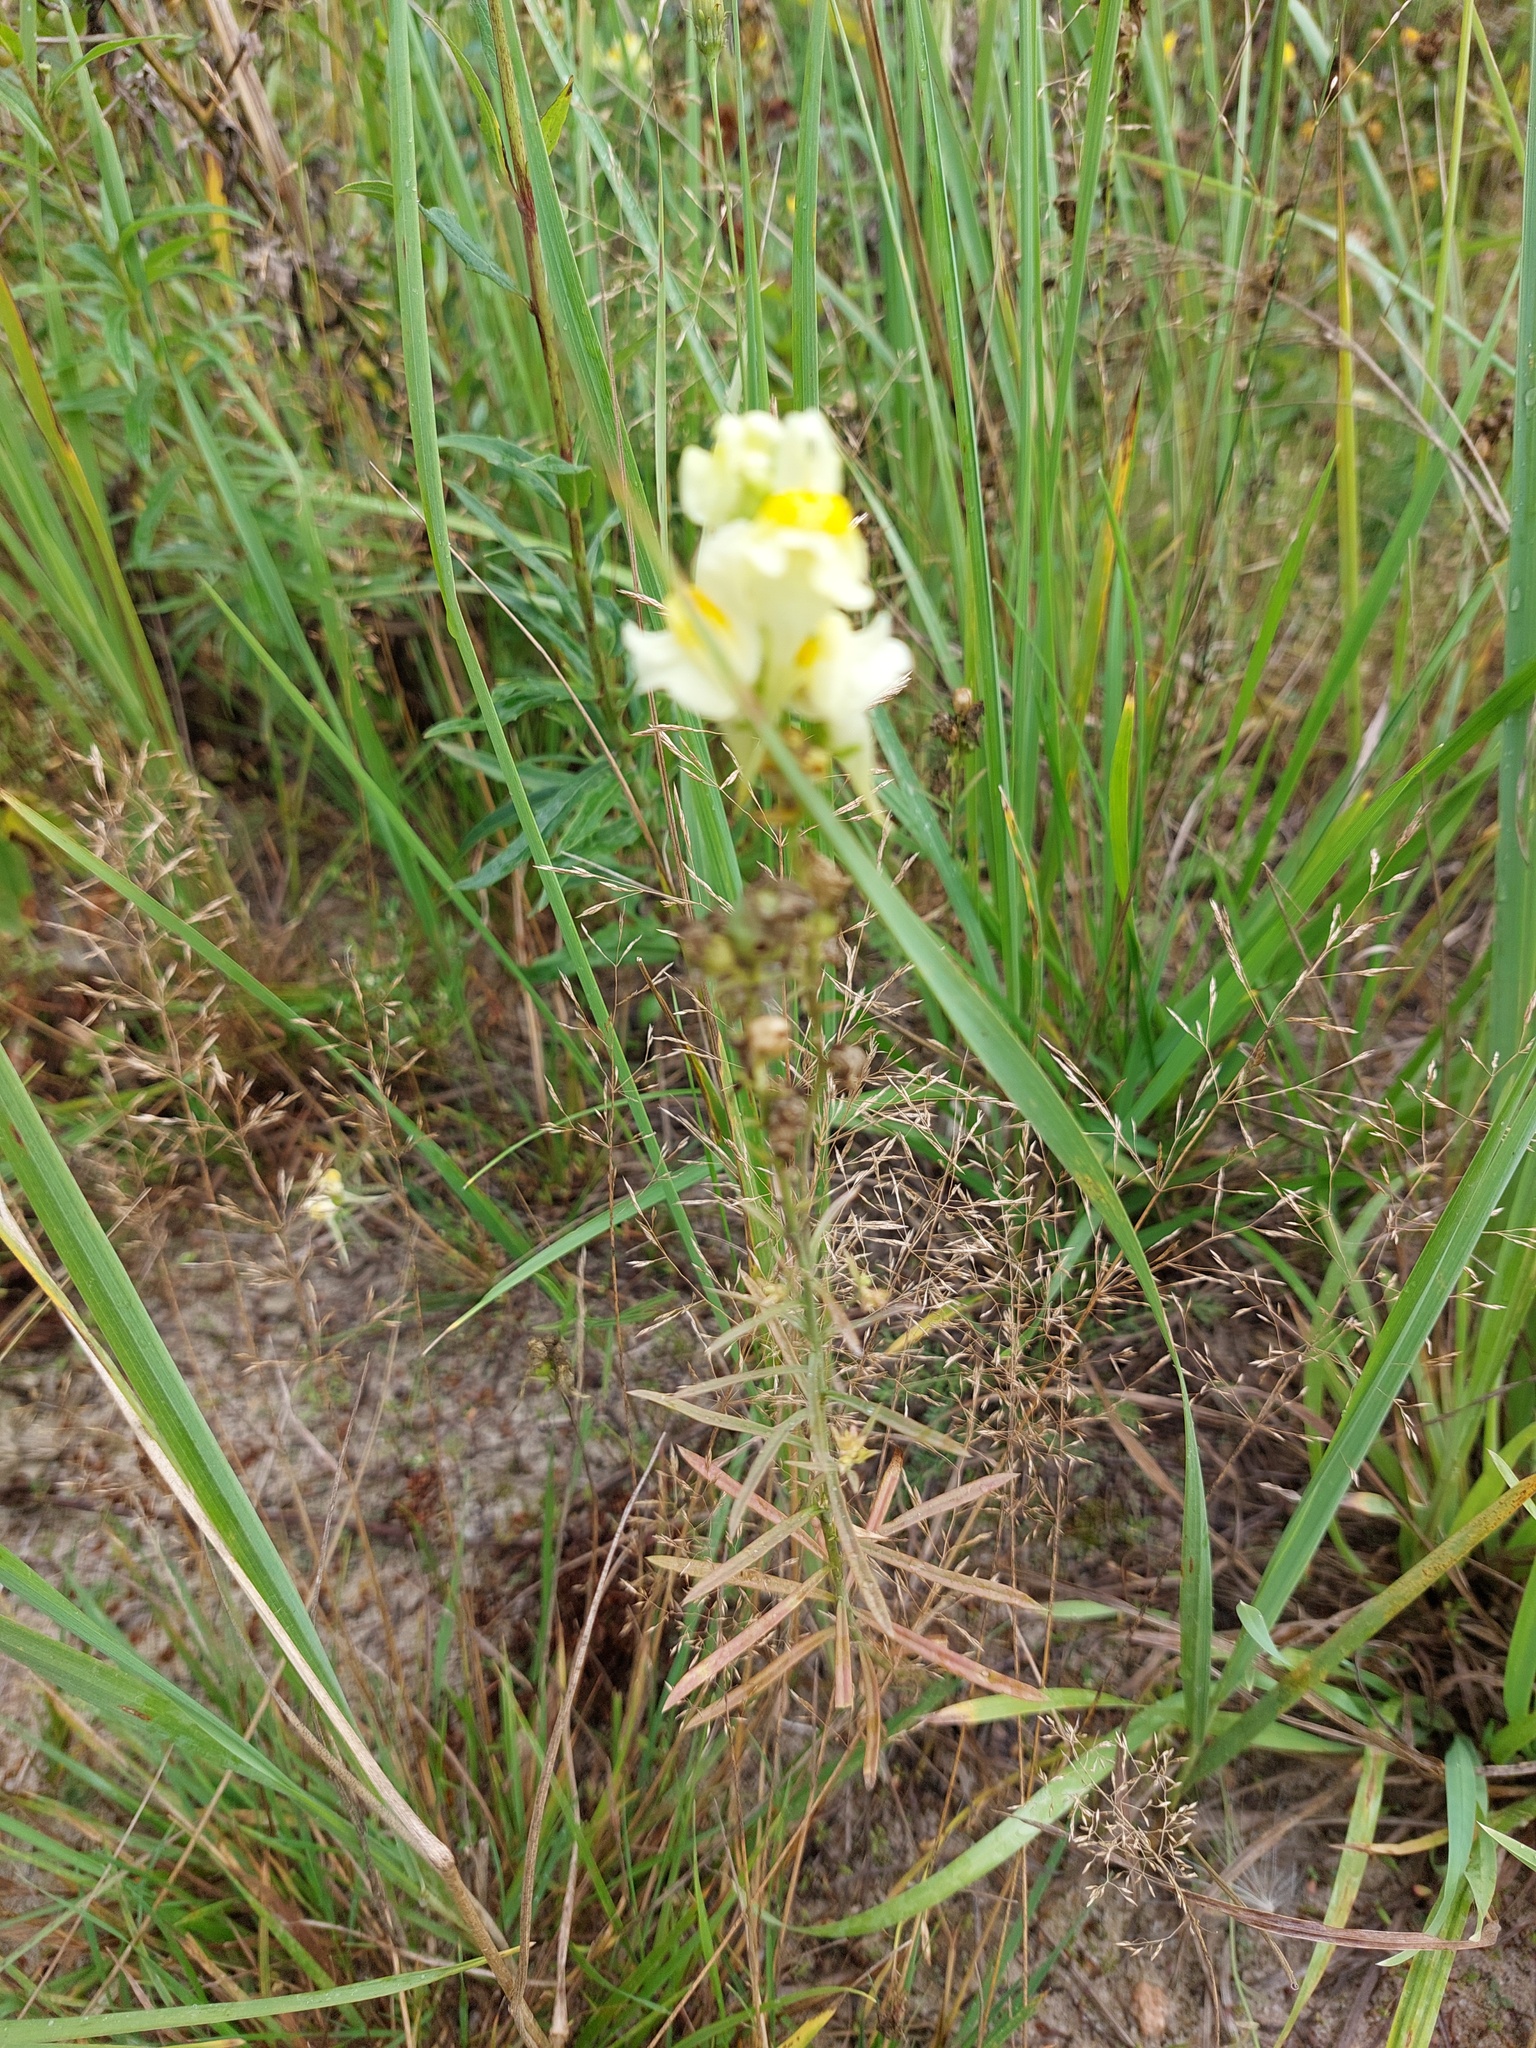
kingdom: Plantae
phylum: Tracheophyta
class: Magnoliopsida
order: Lamiales
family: Plantaginaceae
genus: Linaria
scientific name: Linaria vulgaris
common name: Butter and eggs
